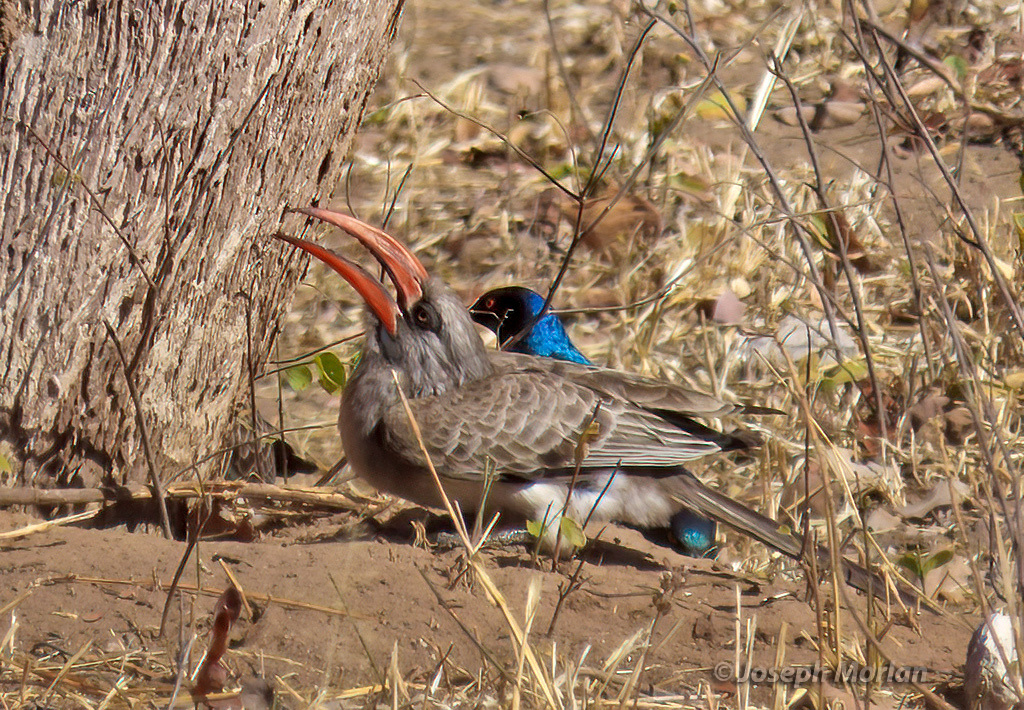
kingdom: Animalia
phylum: Chordata
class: Aves
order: Bucerotiformes
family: Bucerotidae
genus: Lophoceros
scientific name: Lophoceros bradfieldi
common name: Bradfield's hornbill
